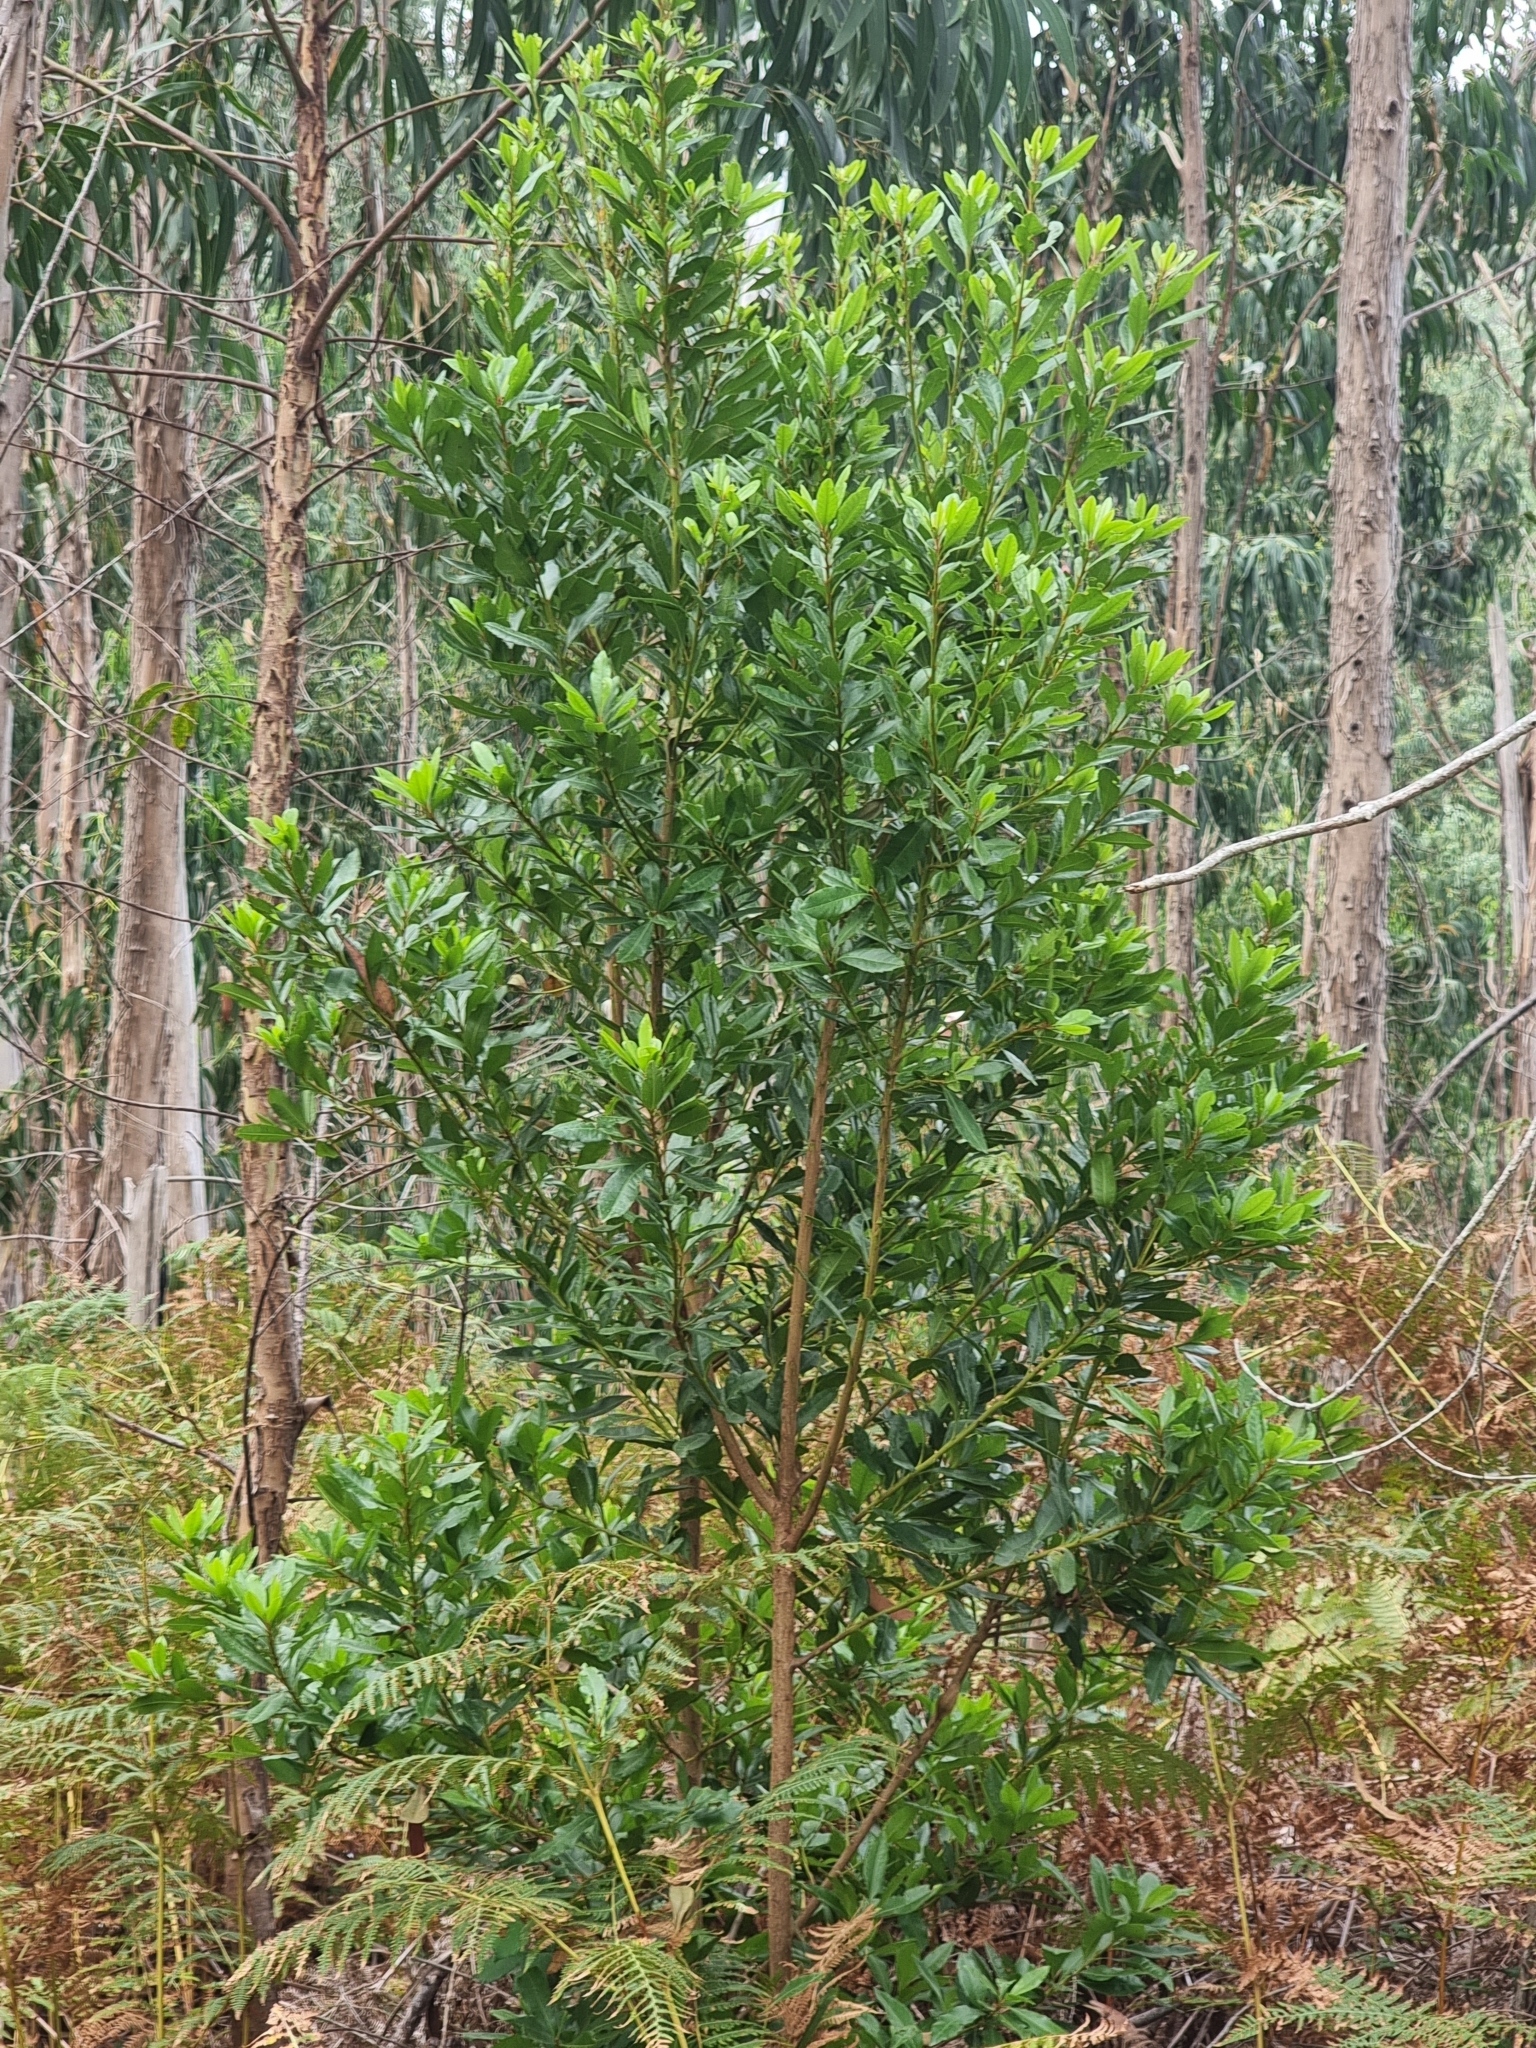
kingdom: Plantae
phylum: Tracheophyta
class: Magnoliopsida
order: Fagales
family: Myricaceae
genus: Morella
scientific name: Morella faya
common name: Firetree
